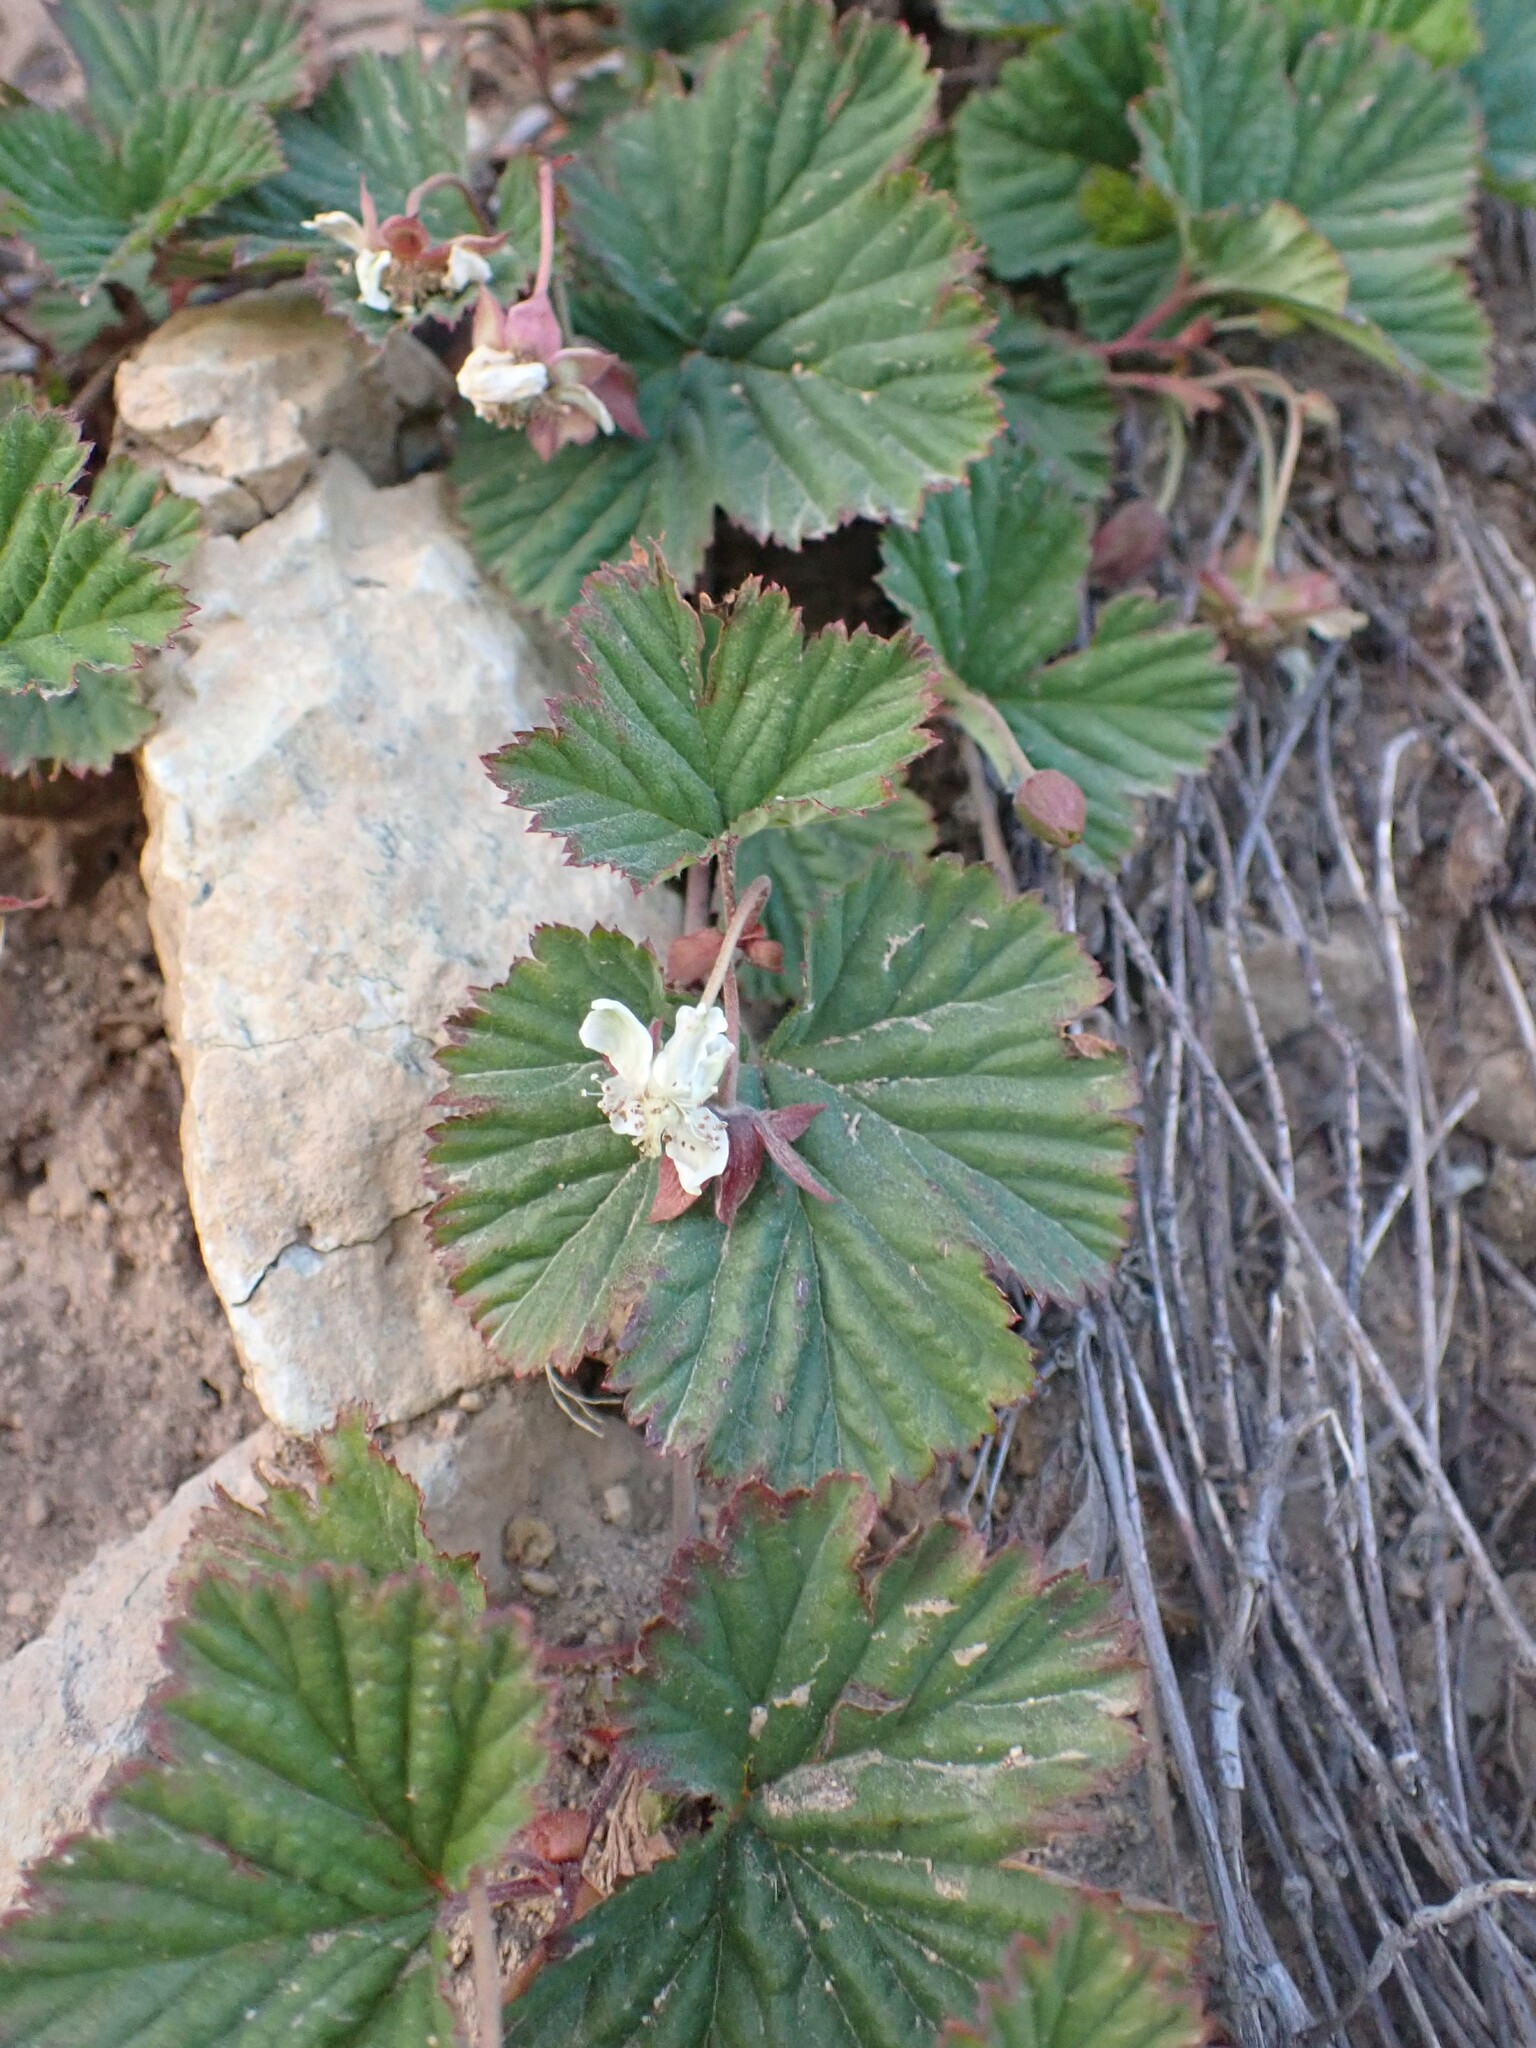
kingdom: Plantae
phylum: Tracheophyta
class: Magnoliopsida
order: Rosales
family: Rosaceae
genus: Rubus
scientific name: Rubus lasiococcus
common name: Dwarf bramble
